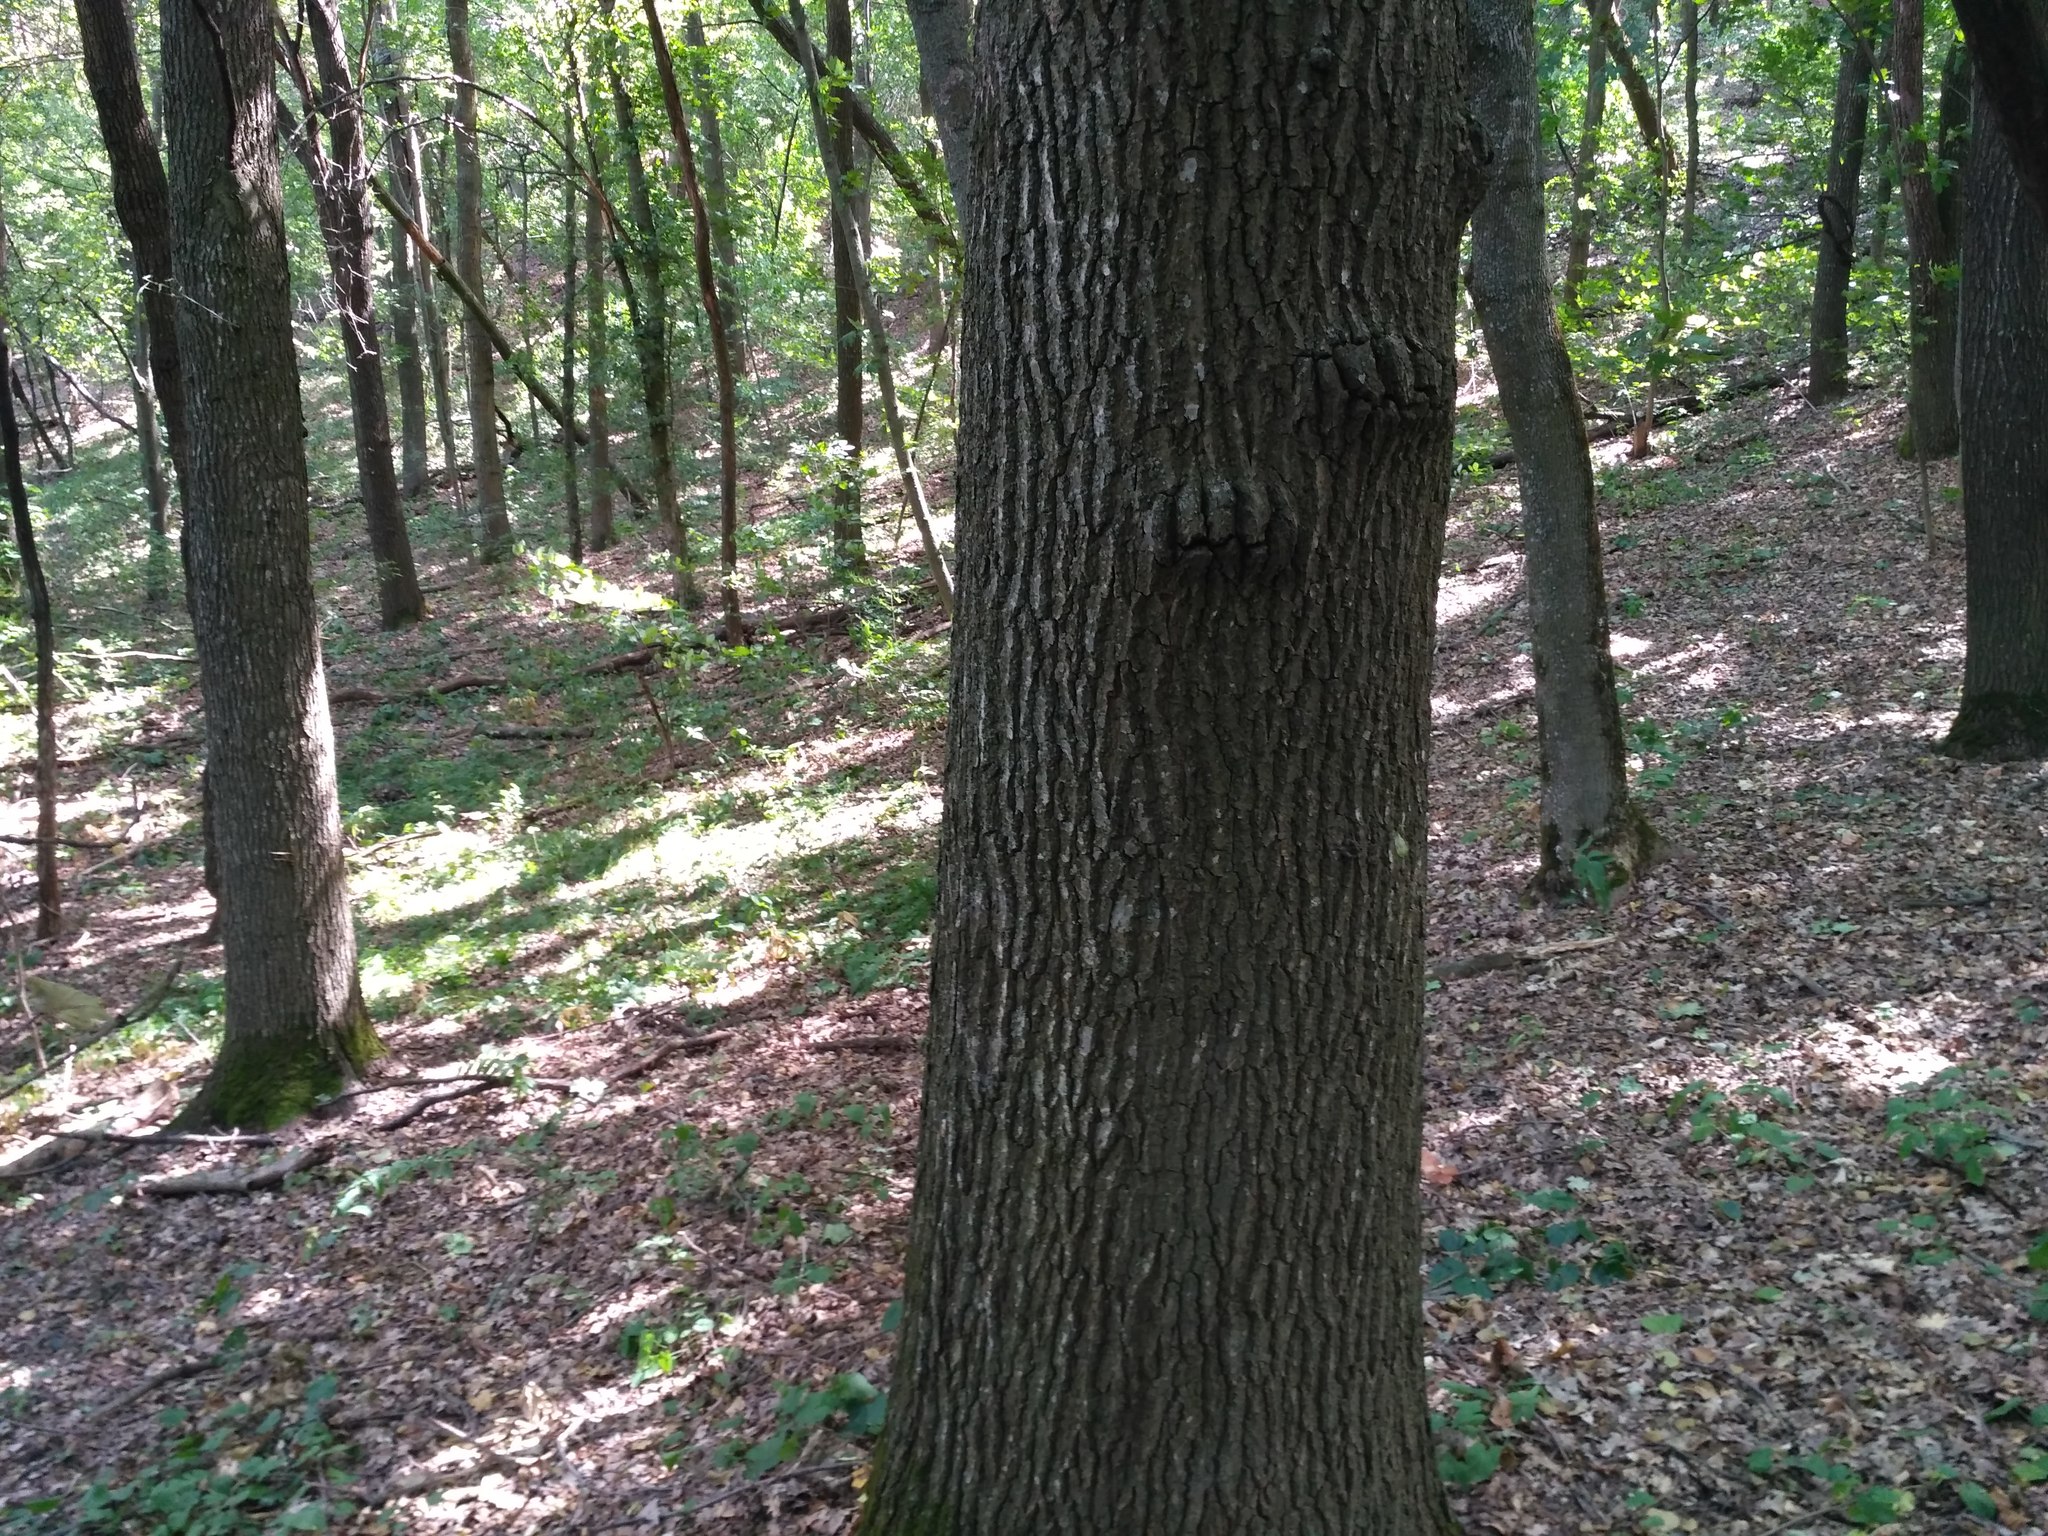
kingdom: Plantae
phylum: Tracheophyta
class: Magnoliopsida
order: Fagales
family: Fagaceae
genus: Quercus
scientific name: Quercus robur
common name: Pedunculate oak
